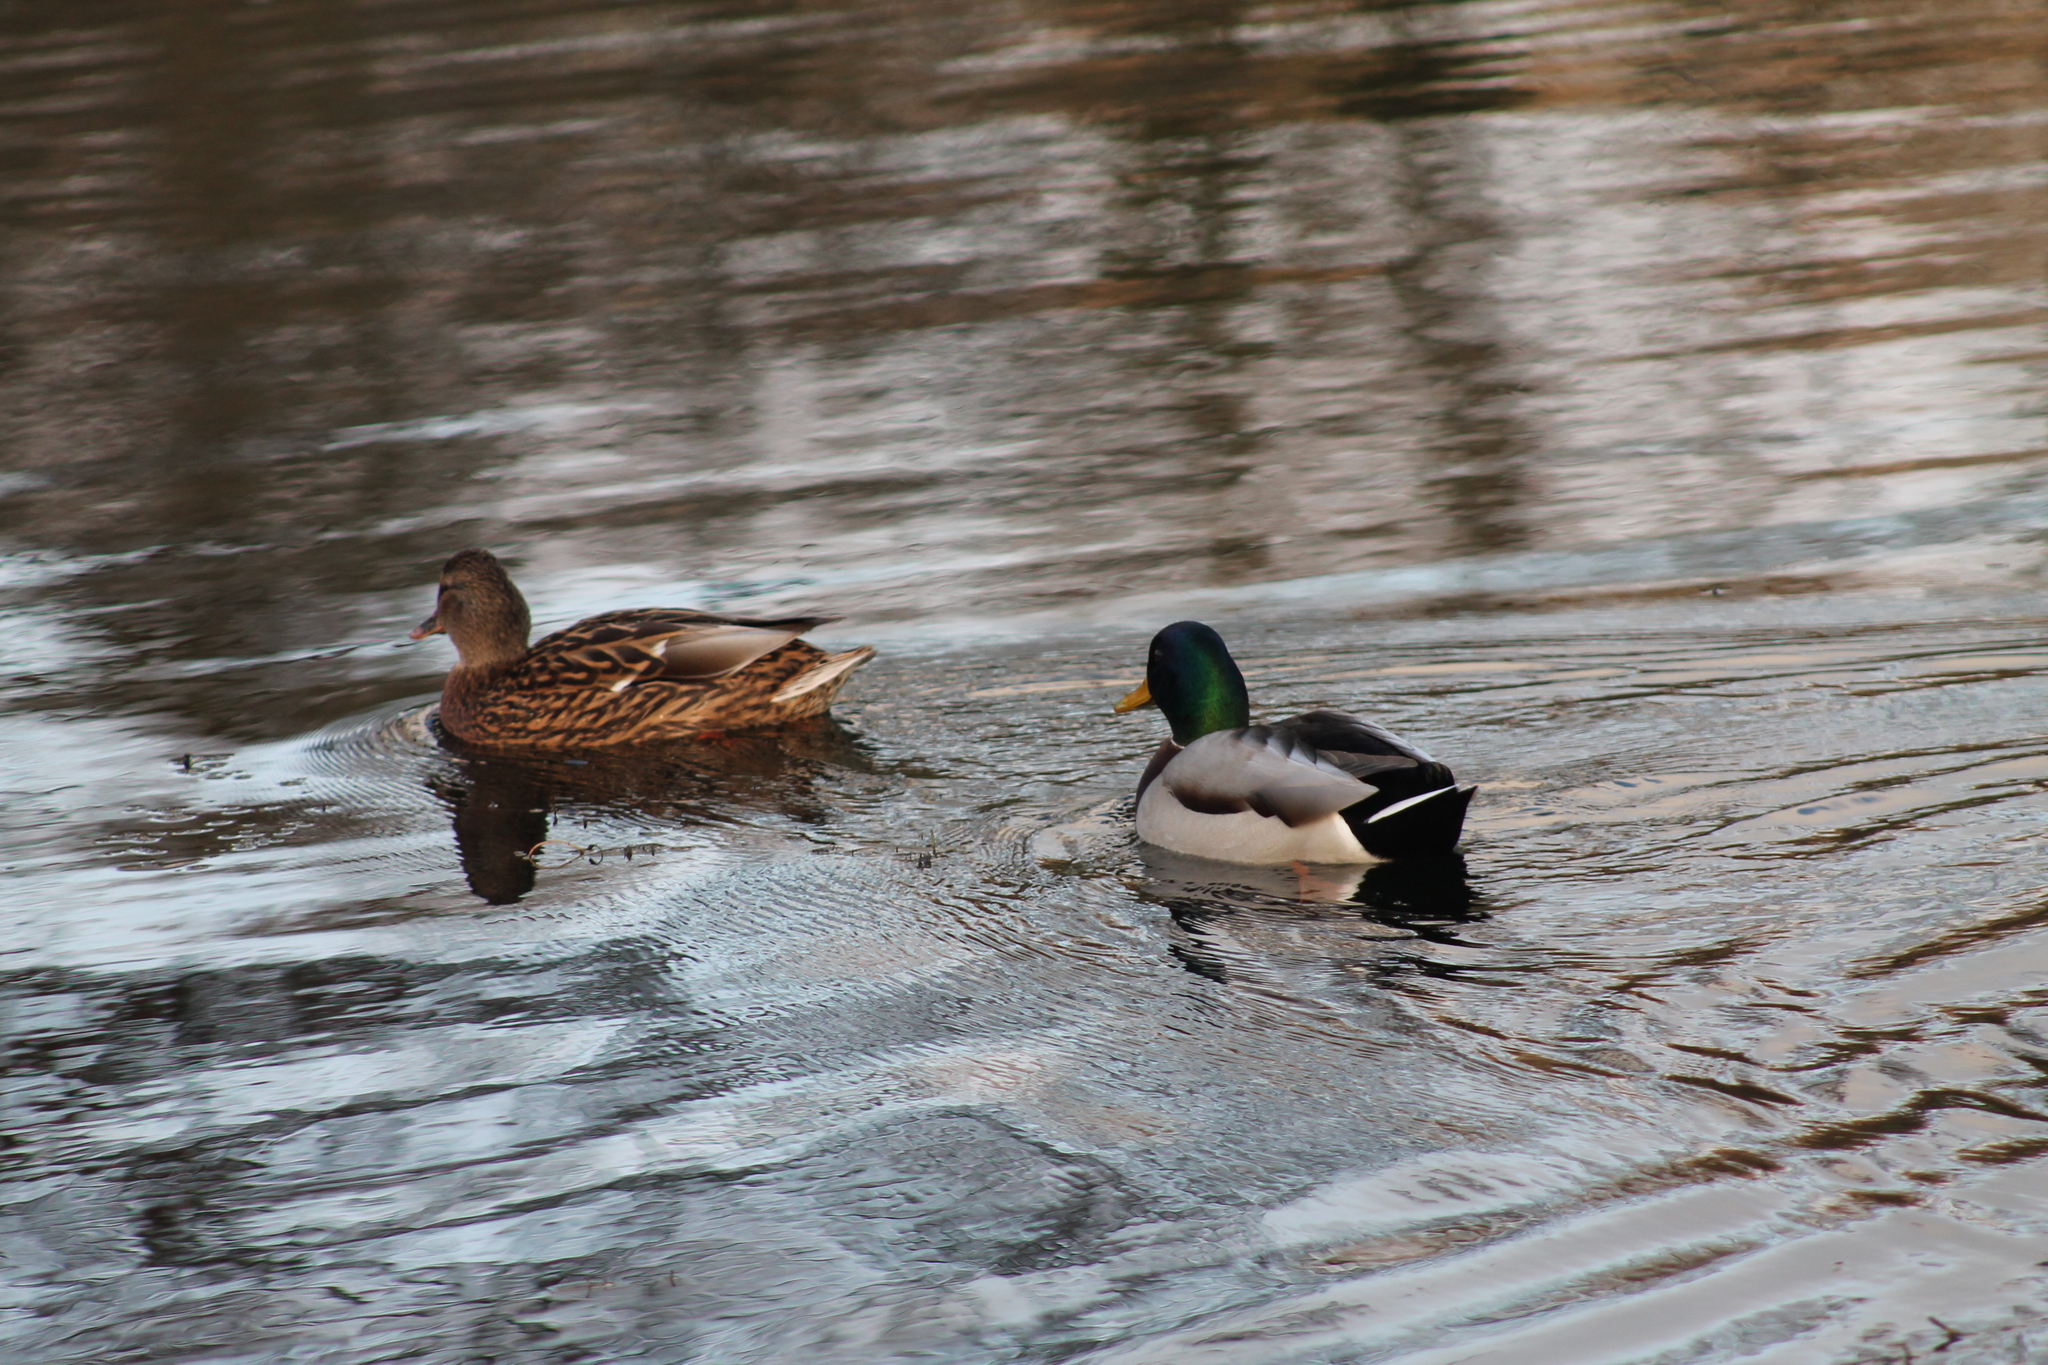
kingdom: Animalia
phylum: Chordata
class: Aves
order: Anseriformes
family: Anatidae
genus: Anas
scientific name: Anas platyrhynchos
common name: Mallard
